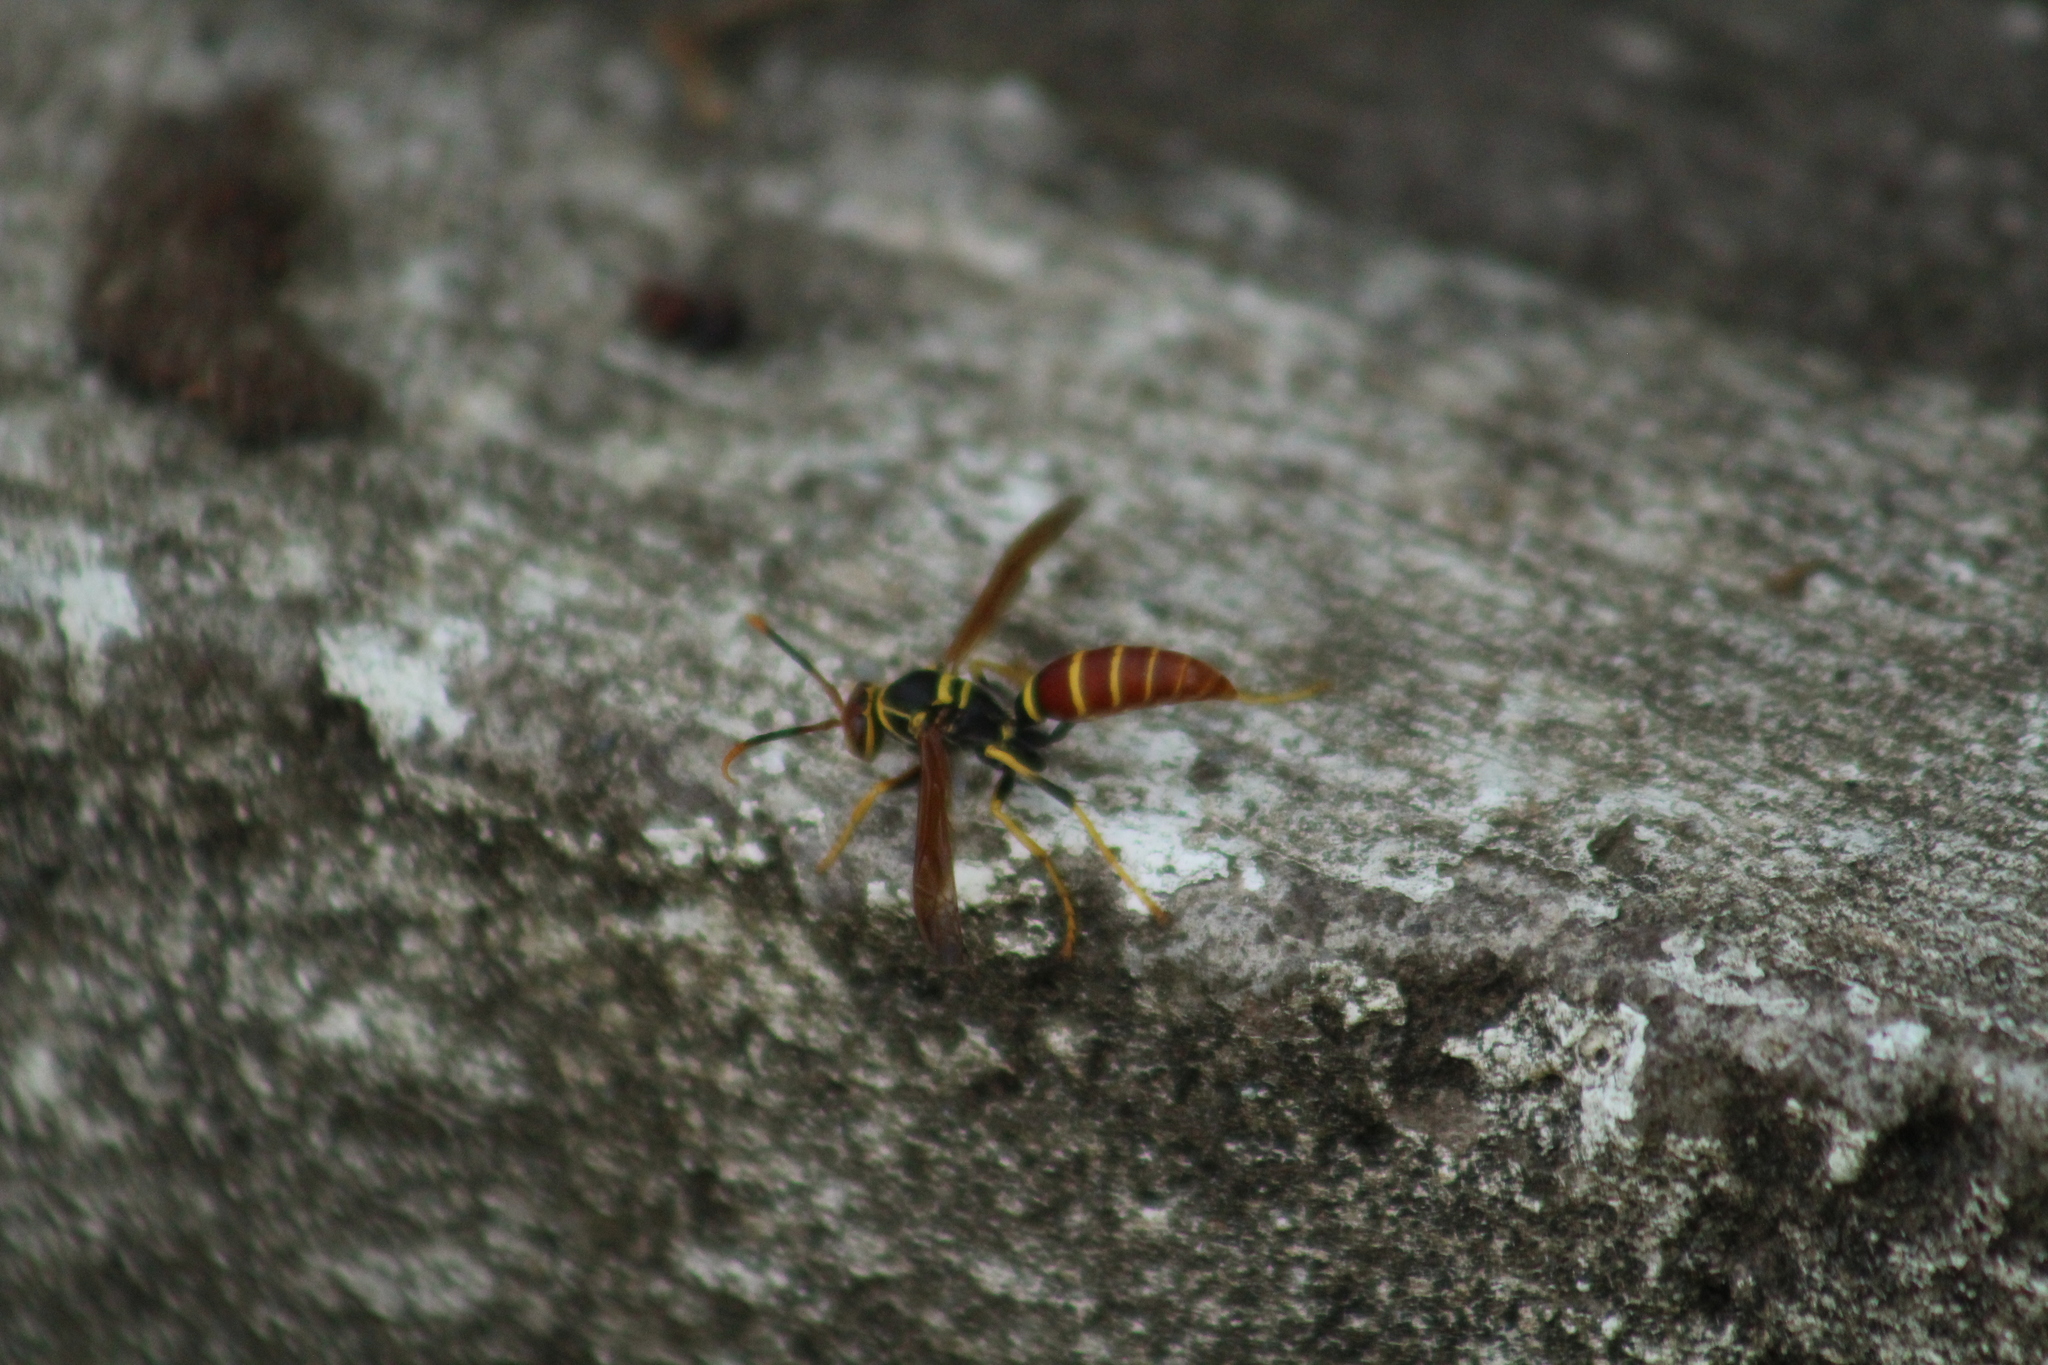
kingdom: Animalia
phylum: Arthropoda
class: Insecta
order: Hymenoptera
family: Eumenidae
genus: Polistes
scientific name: Polistes crinitus
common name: Jack spaniard
